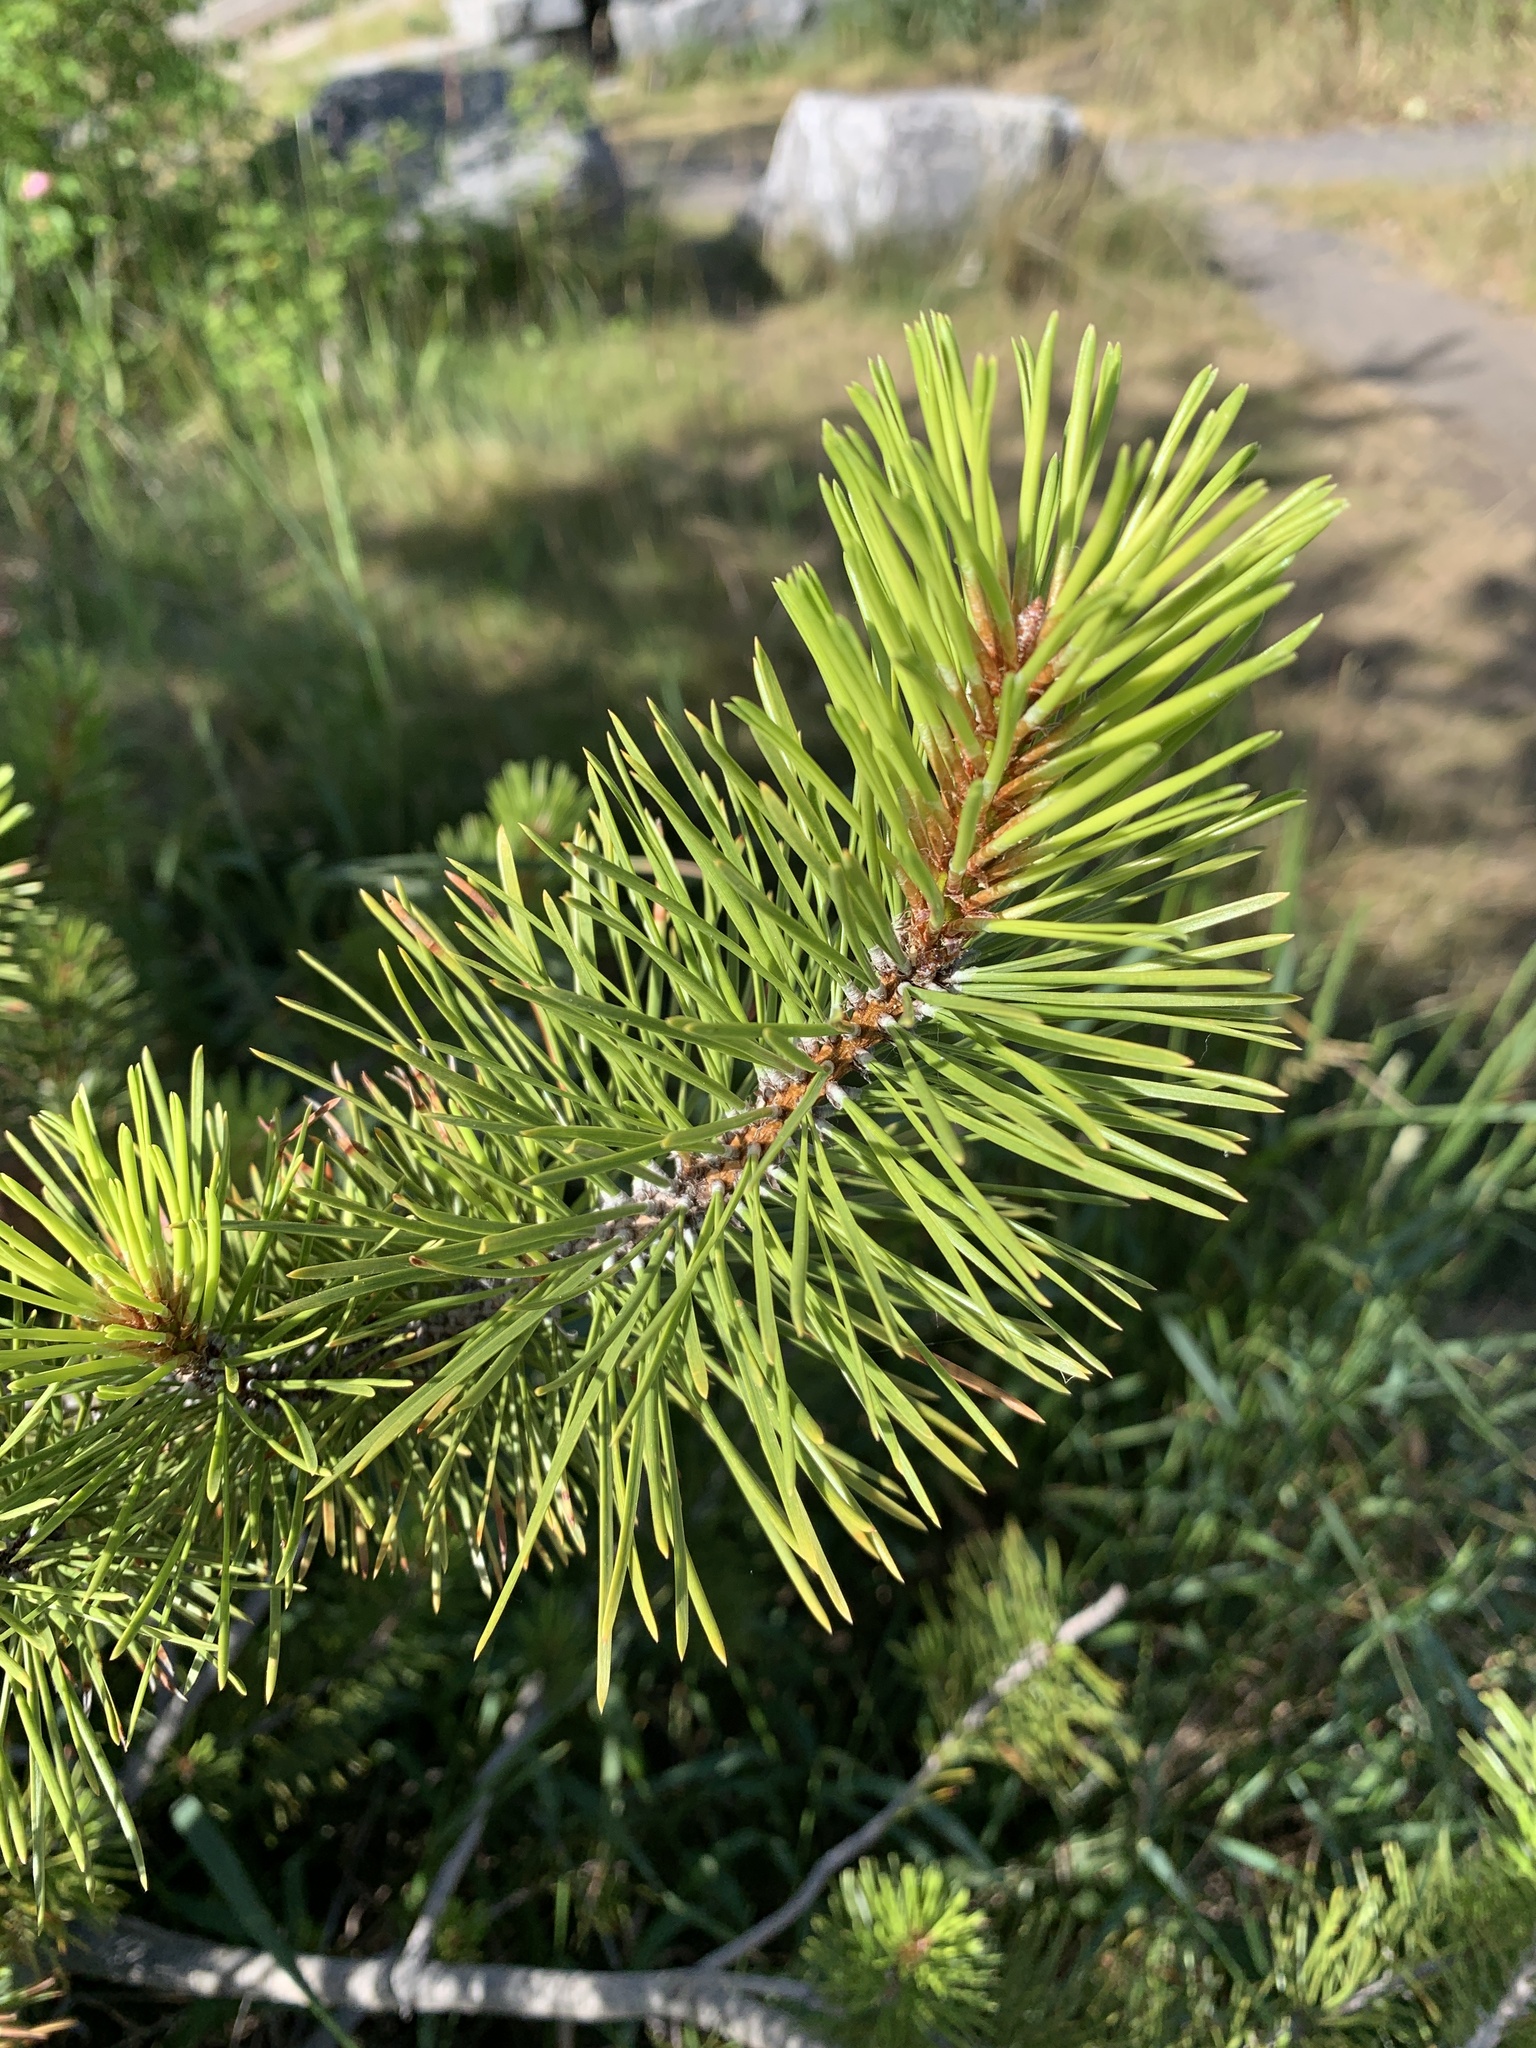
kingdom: Plantae
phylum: Tracheophyta
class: Pinopsida
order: Pinales
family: Pinaceae
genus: Pinus
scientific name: Pinus contorta
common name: Lodgepole pine
